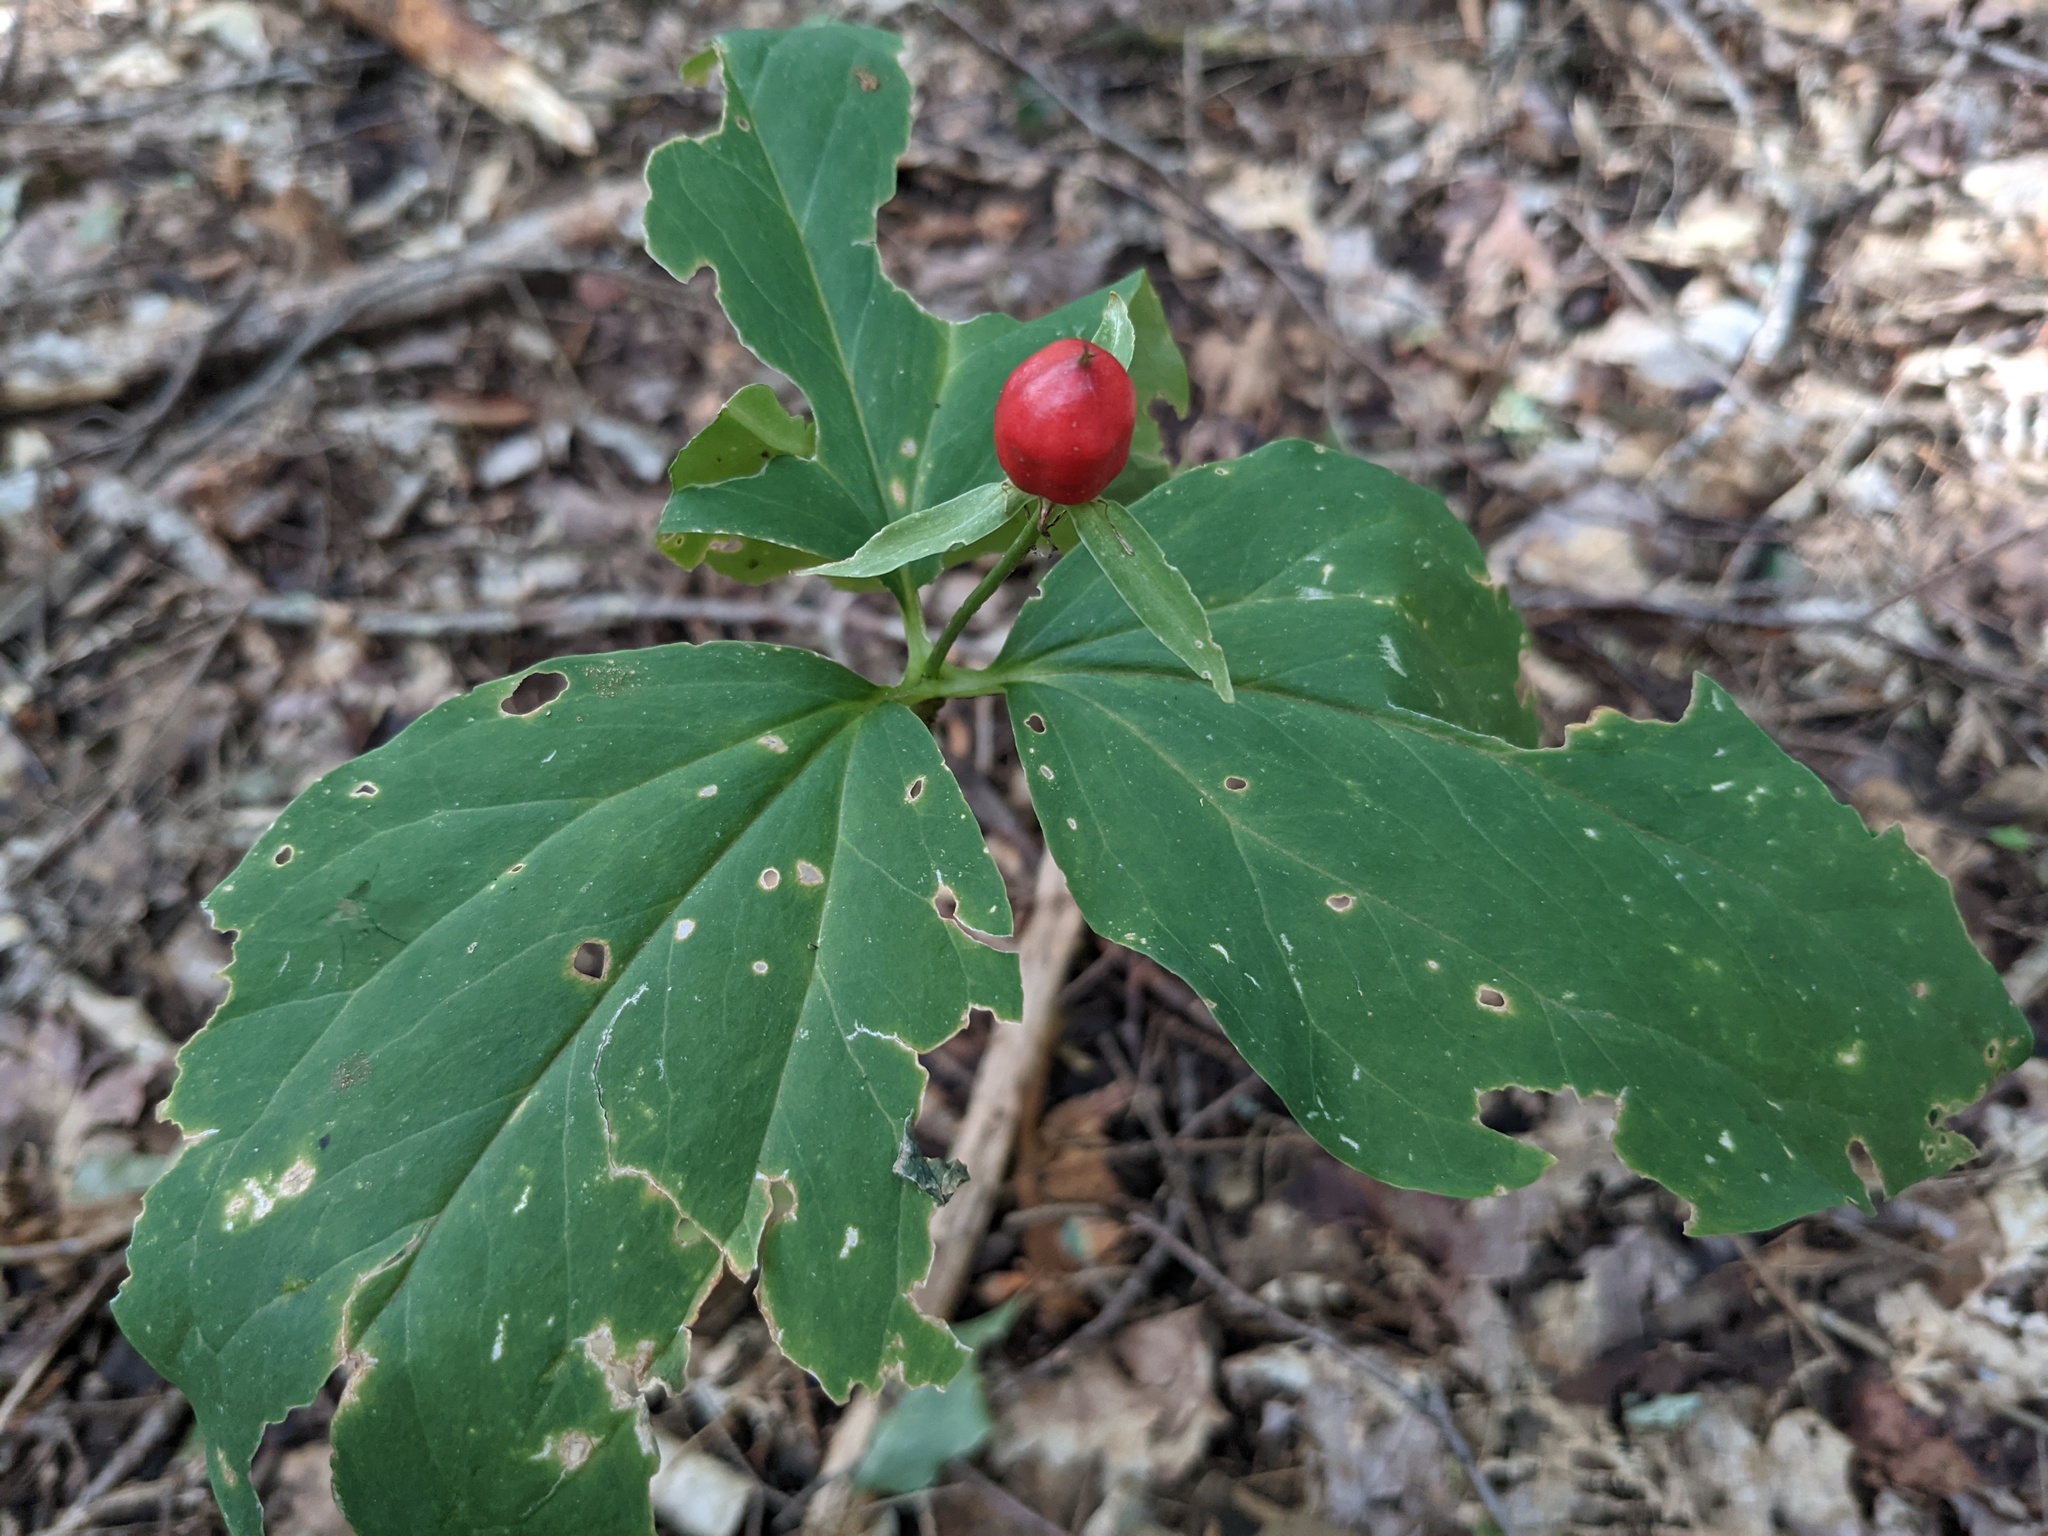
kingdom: Plantae
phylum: Tracheophyta
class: Liliopsida
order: Liliales
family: Melanthiaceae
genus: Trillium
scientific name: Trillium undulatum
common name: Paint trillium
